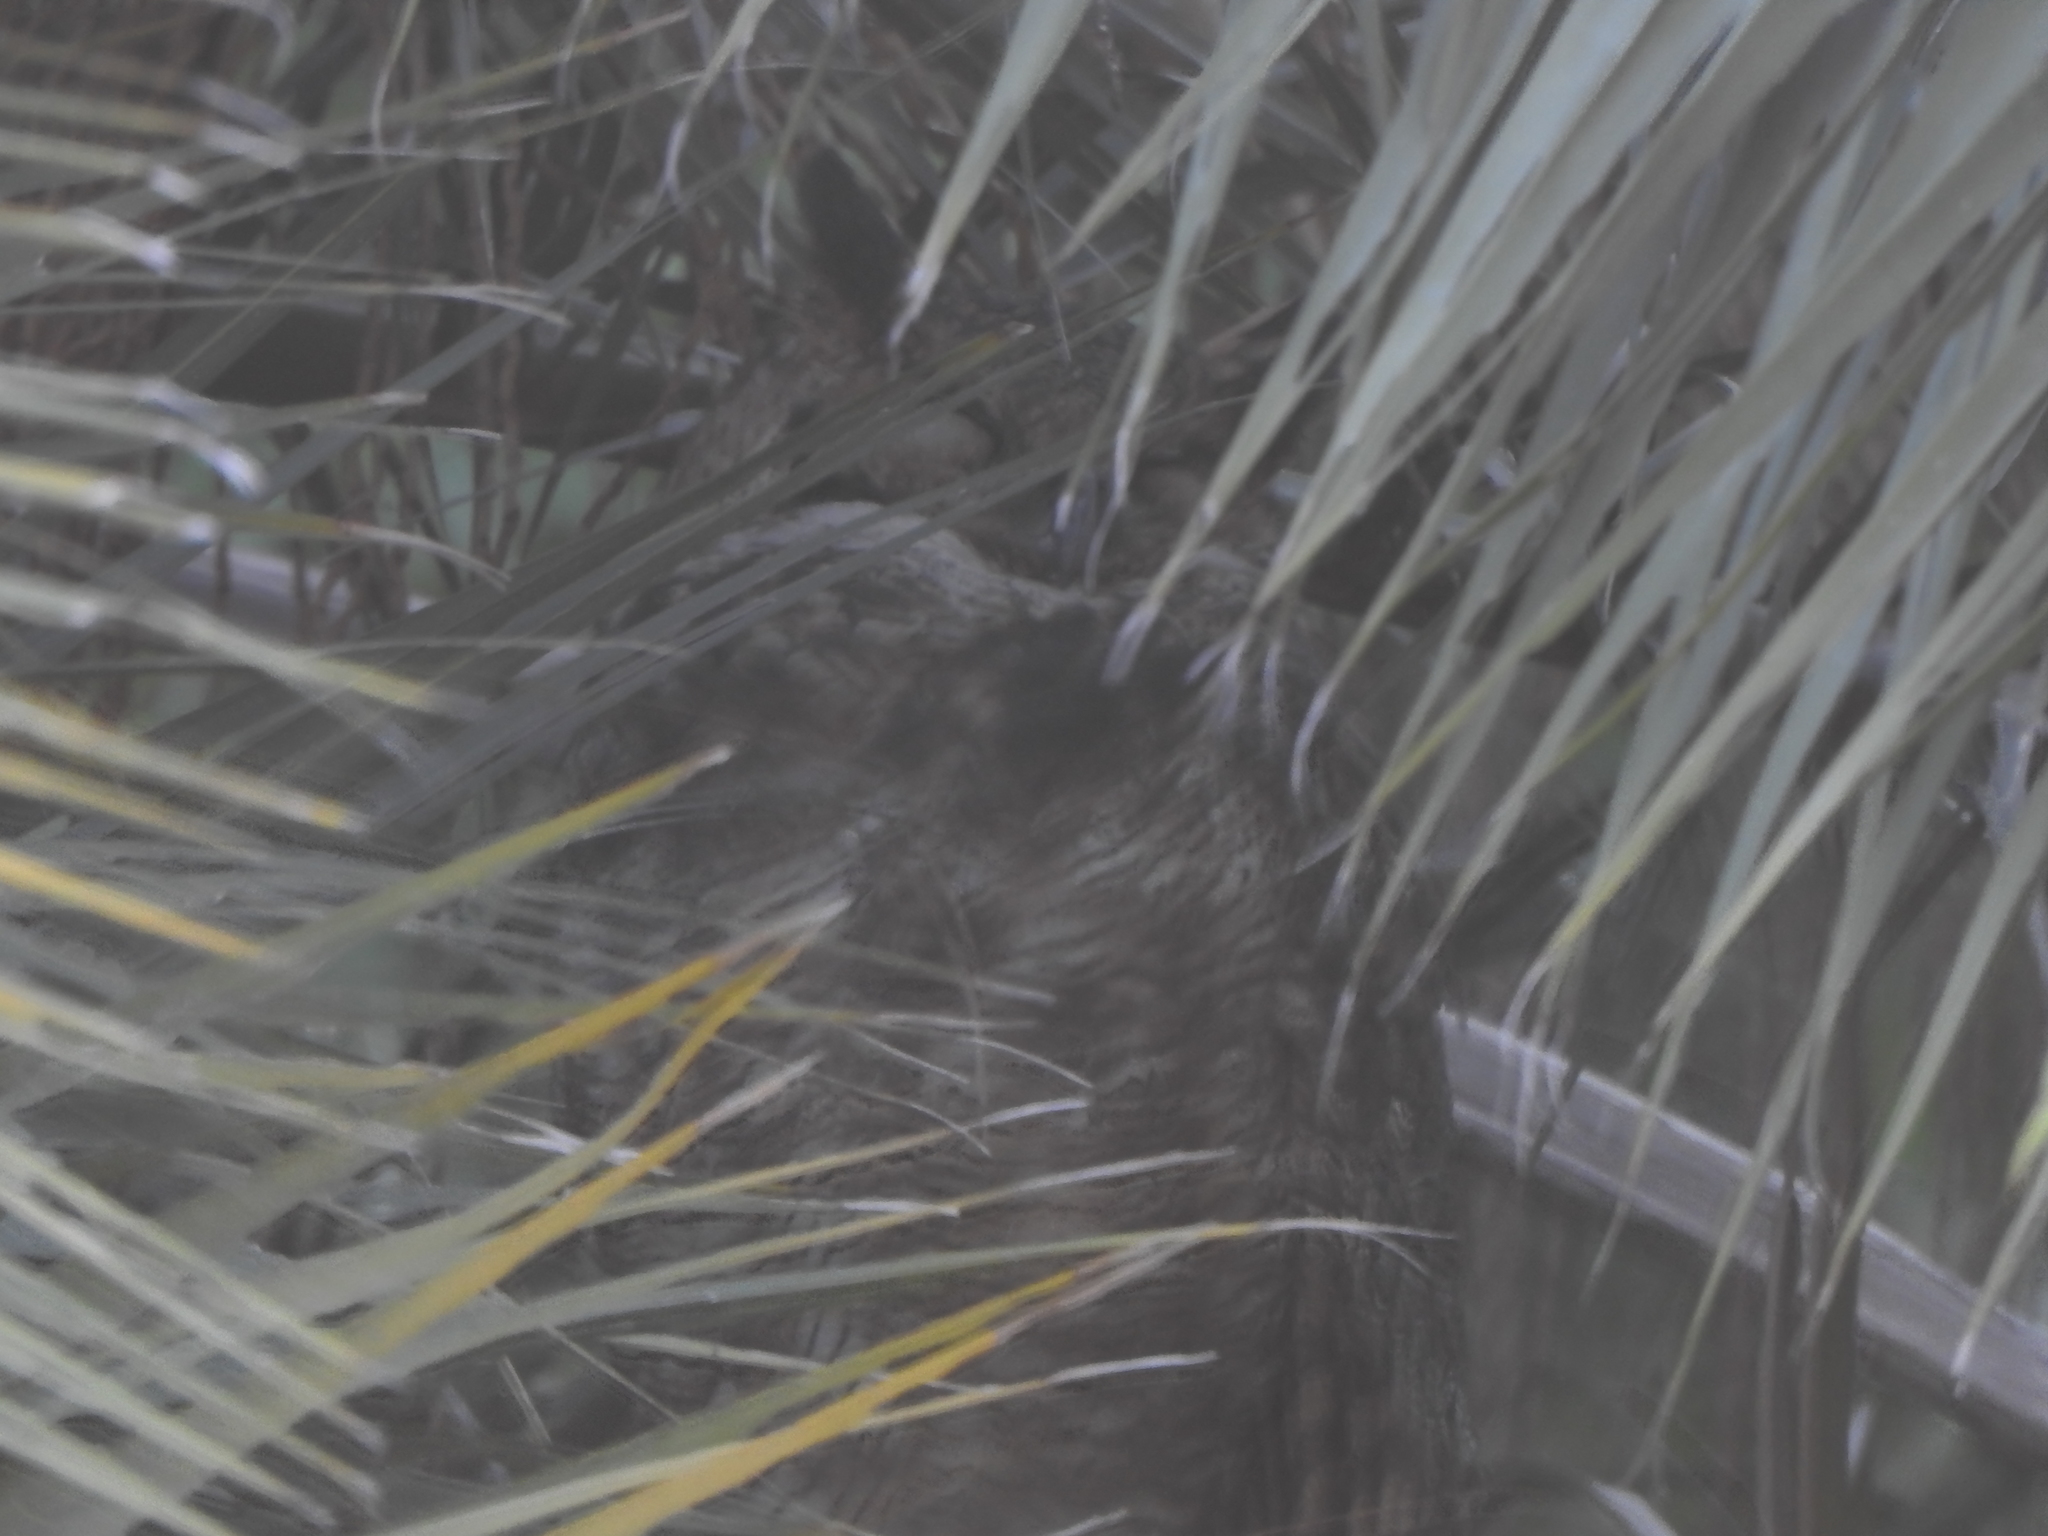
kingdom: Animalia
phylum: Chordata
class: Aves
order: Strigiformes
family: Strigidae
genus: Bubo
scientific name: Bubo virginianus
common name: Great horned owl
